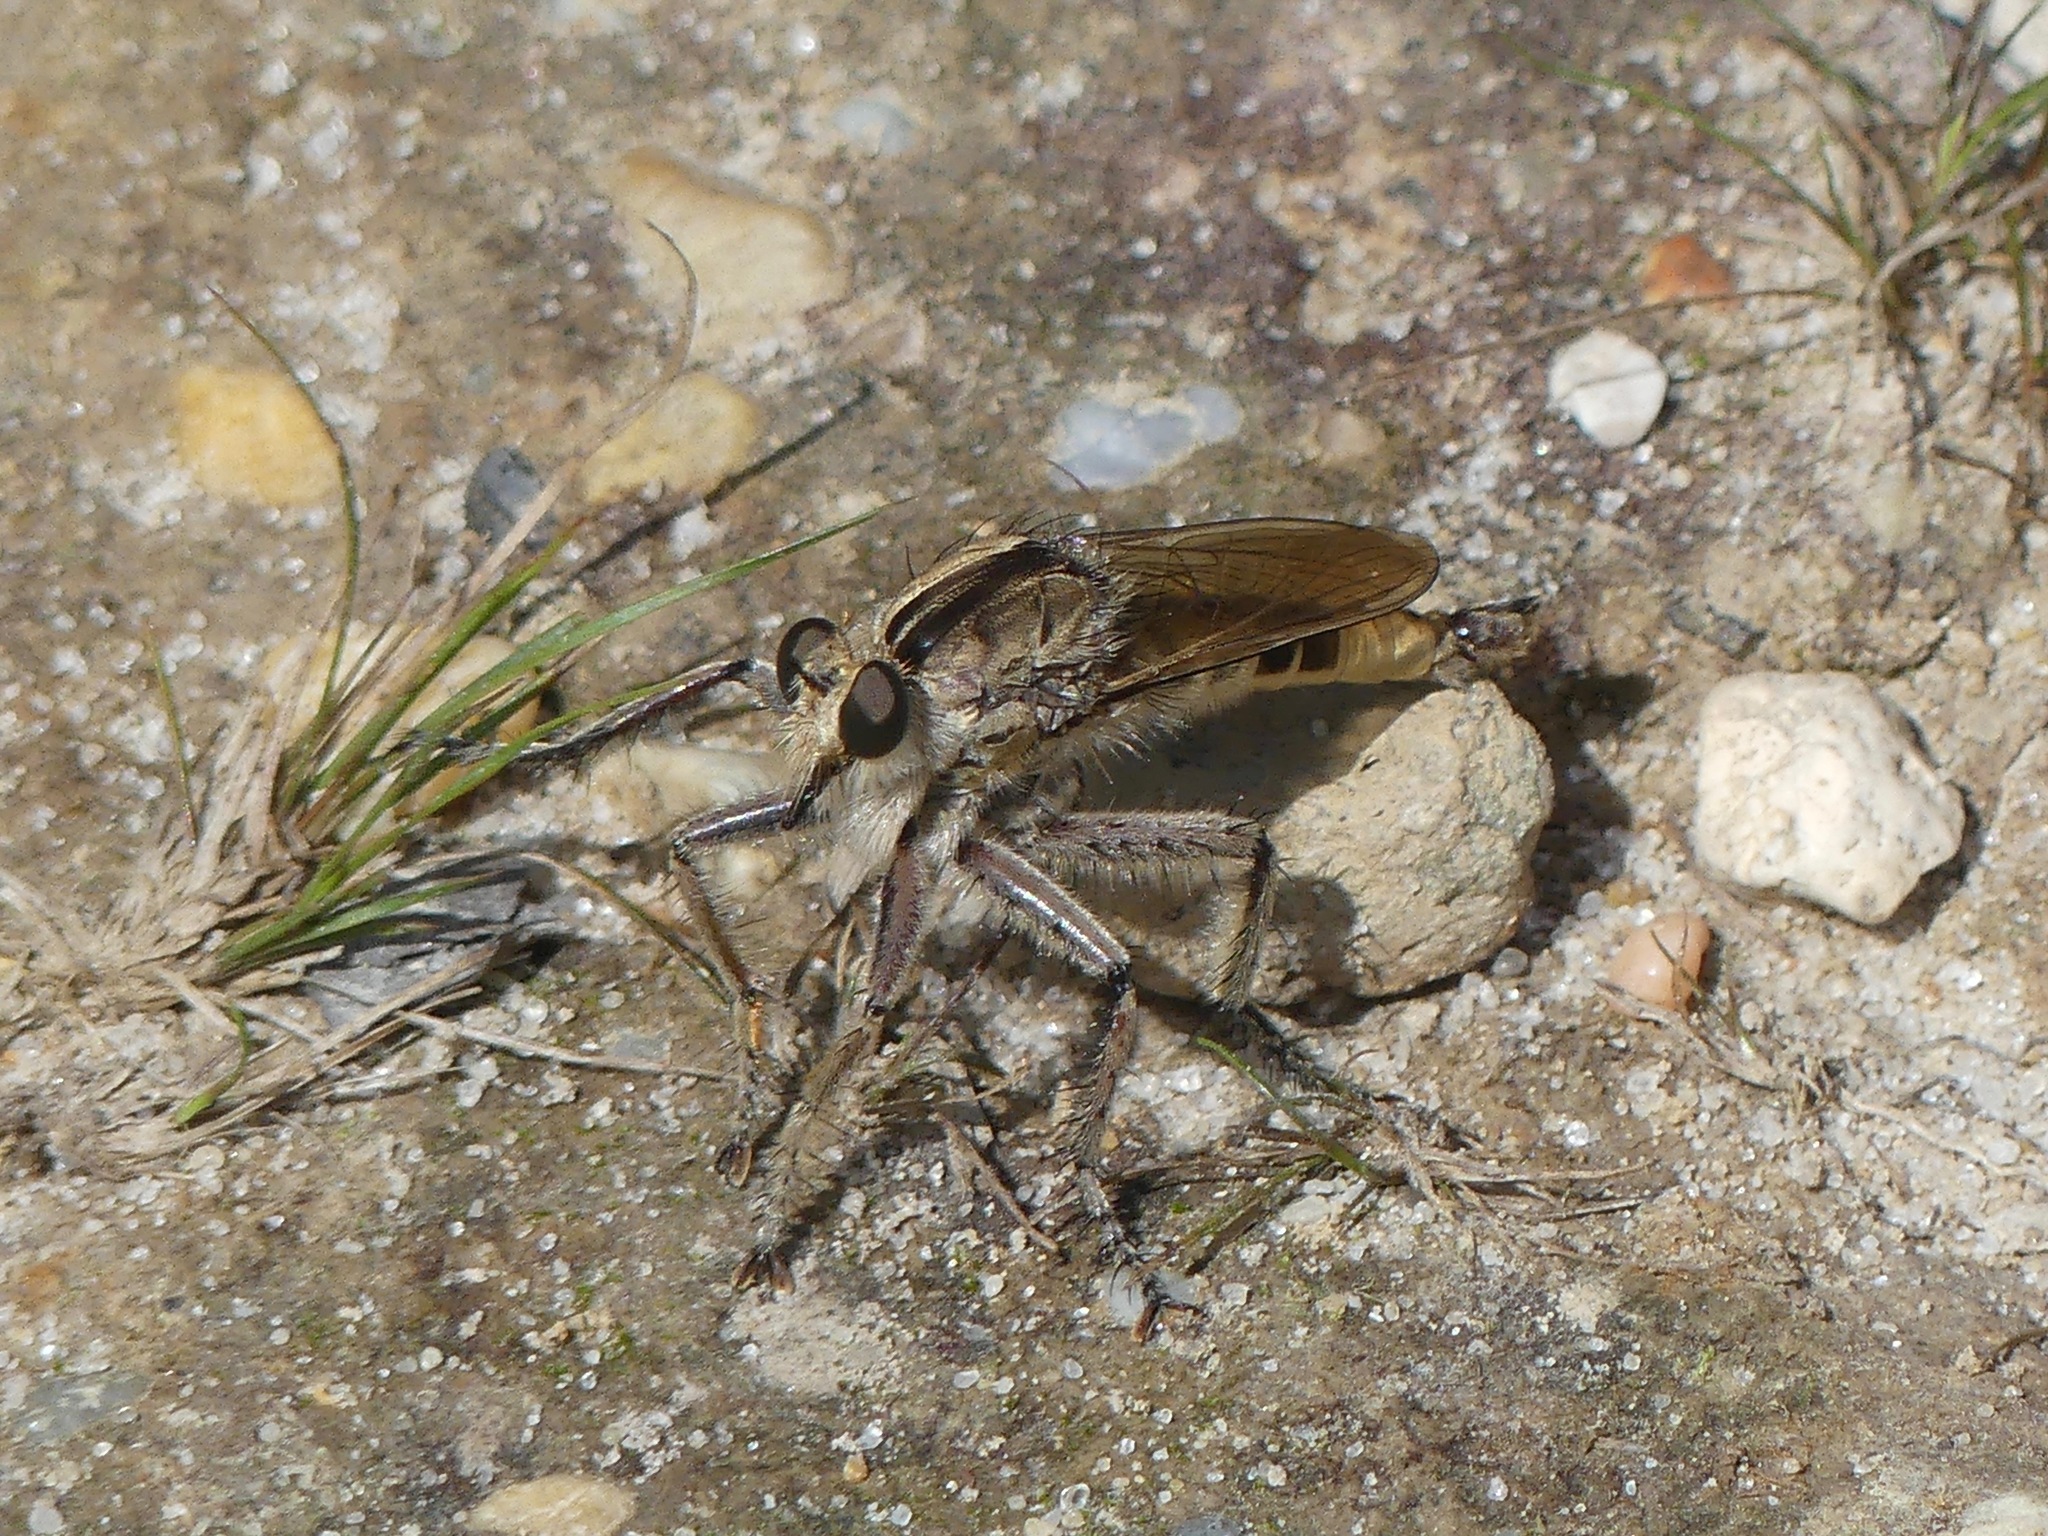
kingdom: Animalia
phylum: Arthropoda
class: Insecta
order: Diptera
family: Asilidae
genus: Triorla
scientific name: Triorla interrupta
